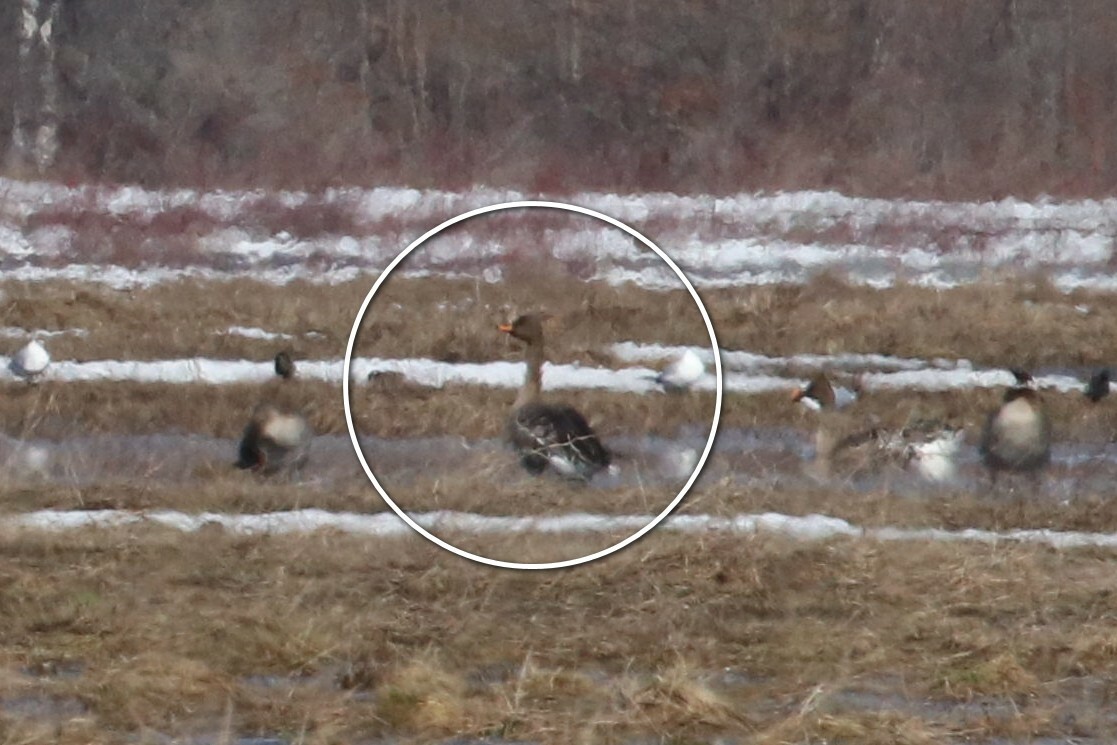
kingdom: Animalia
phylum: Chordata
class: Aves
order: Anseriformes
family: Anatidae
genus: Anser
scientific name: Anser fabalis
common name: Bean goose
